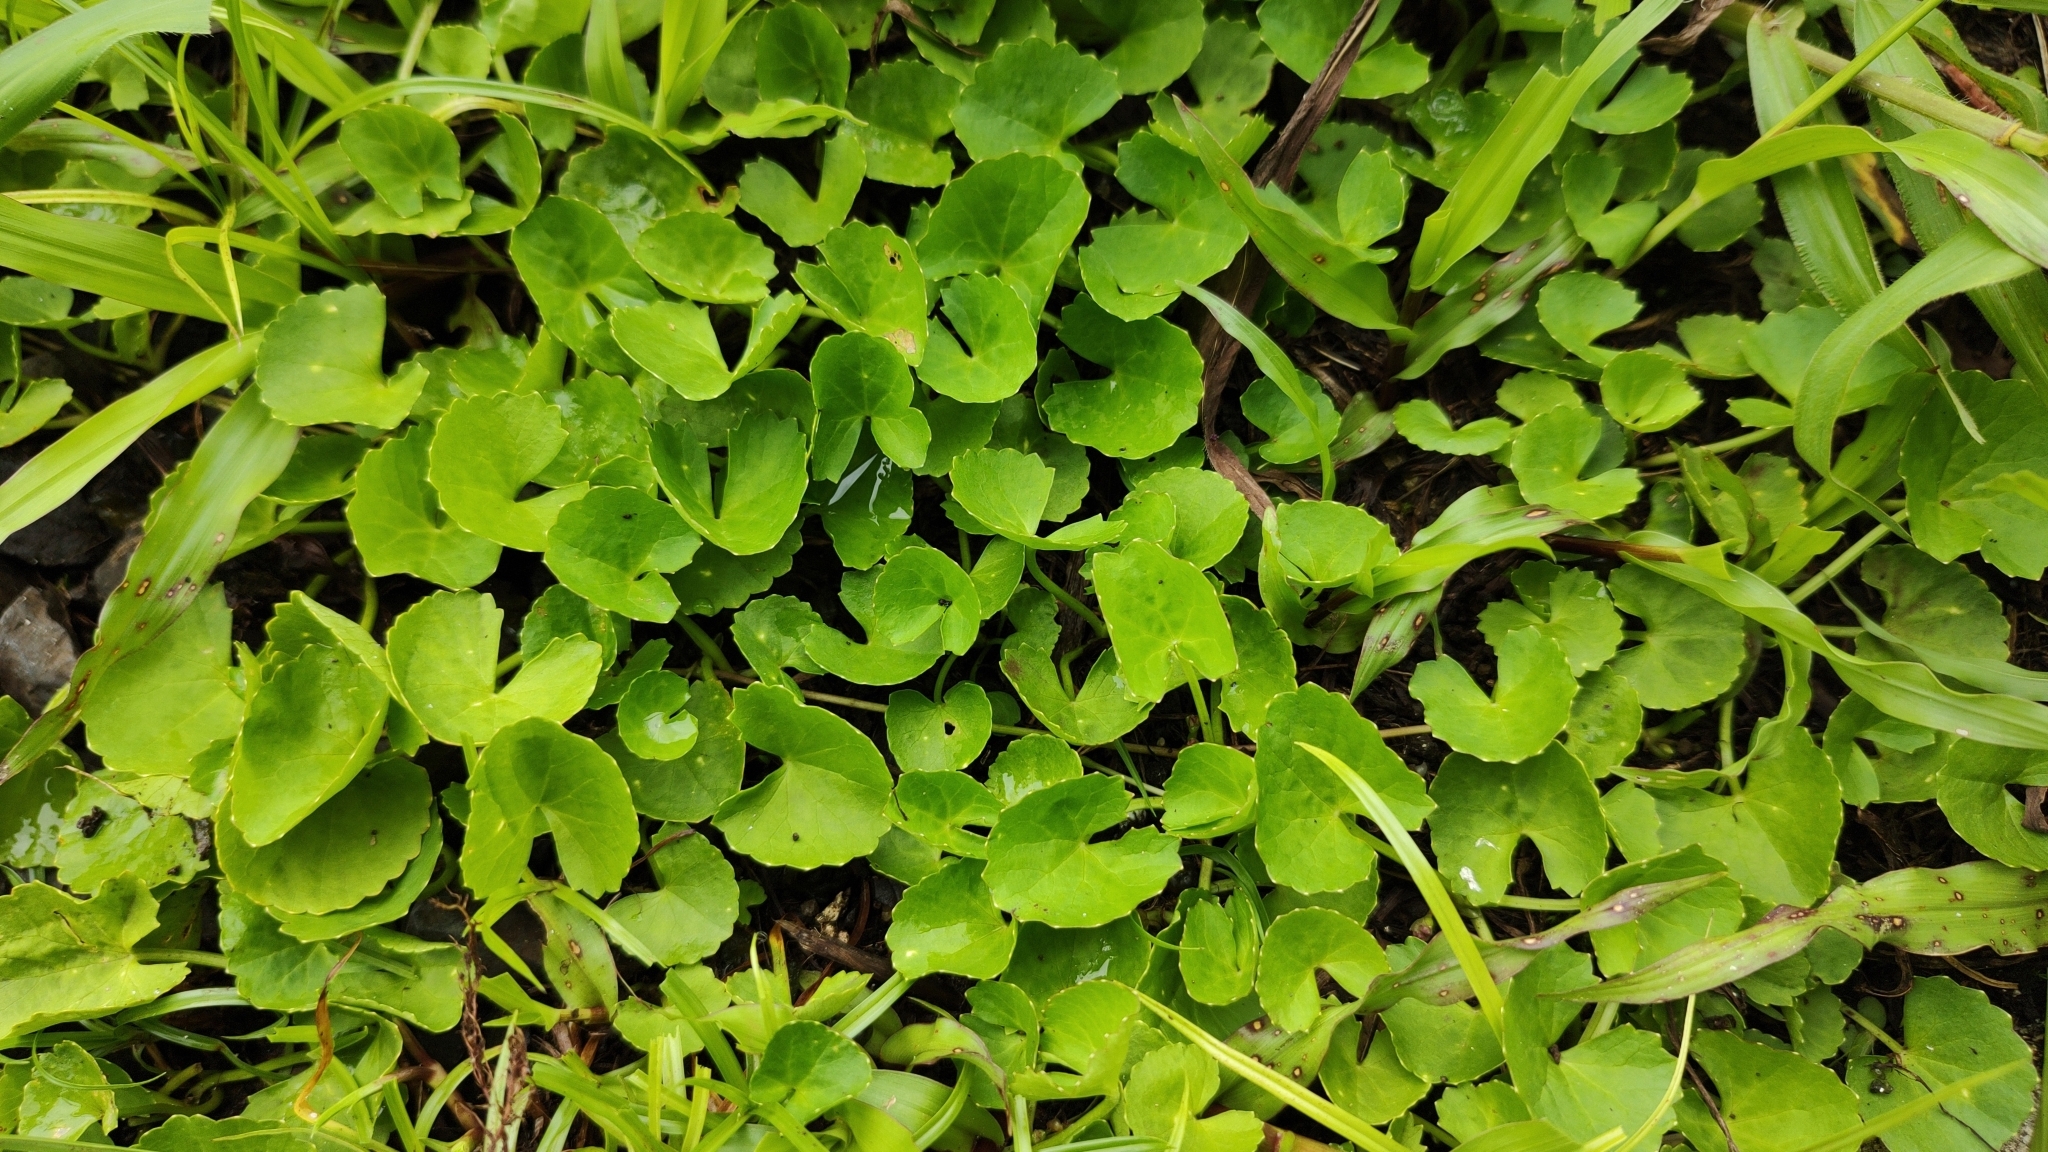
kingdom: Plantae
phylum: Tracheophyta
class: Magnoliopsida
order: Apiales
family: Apiaceae
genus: Centella
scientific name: Centella asiatica
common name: Spadeleaf
